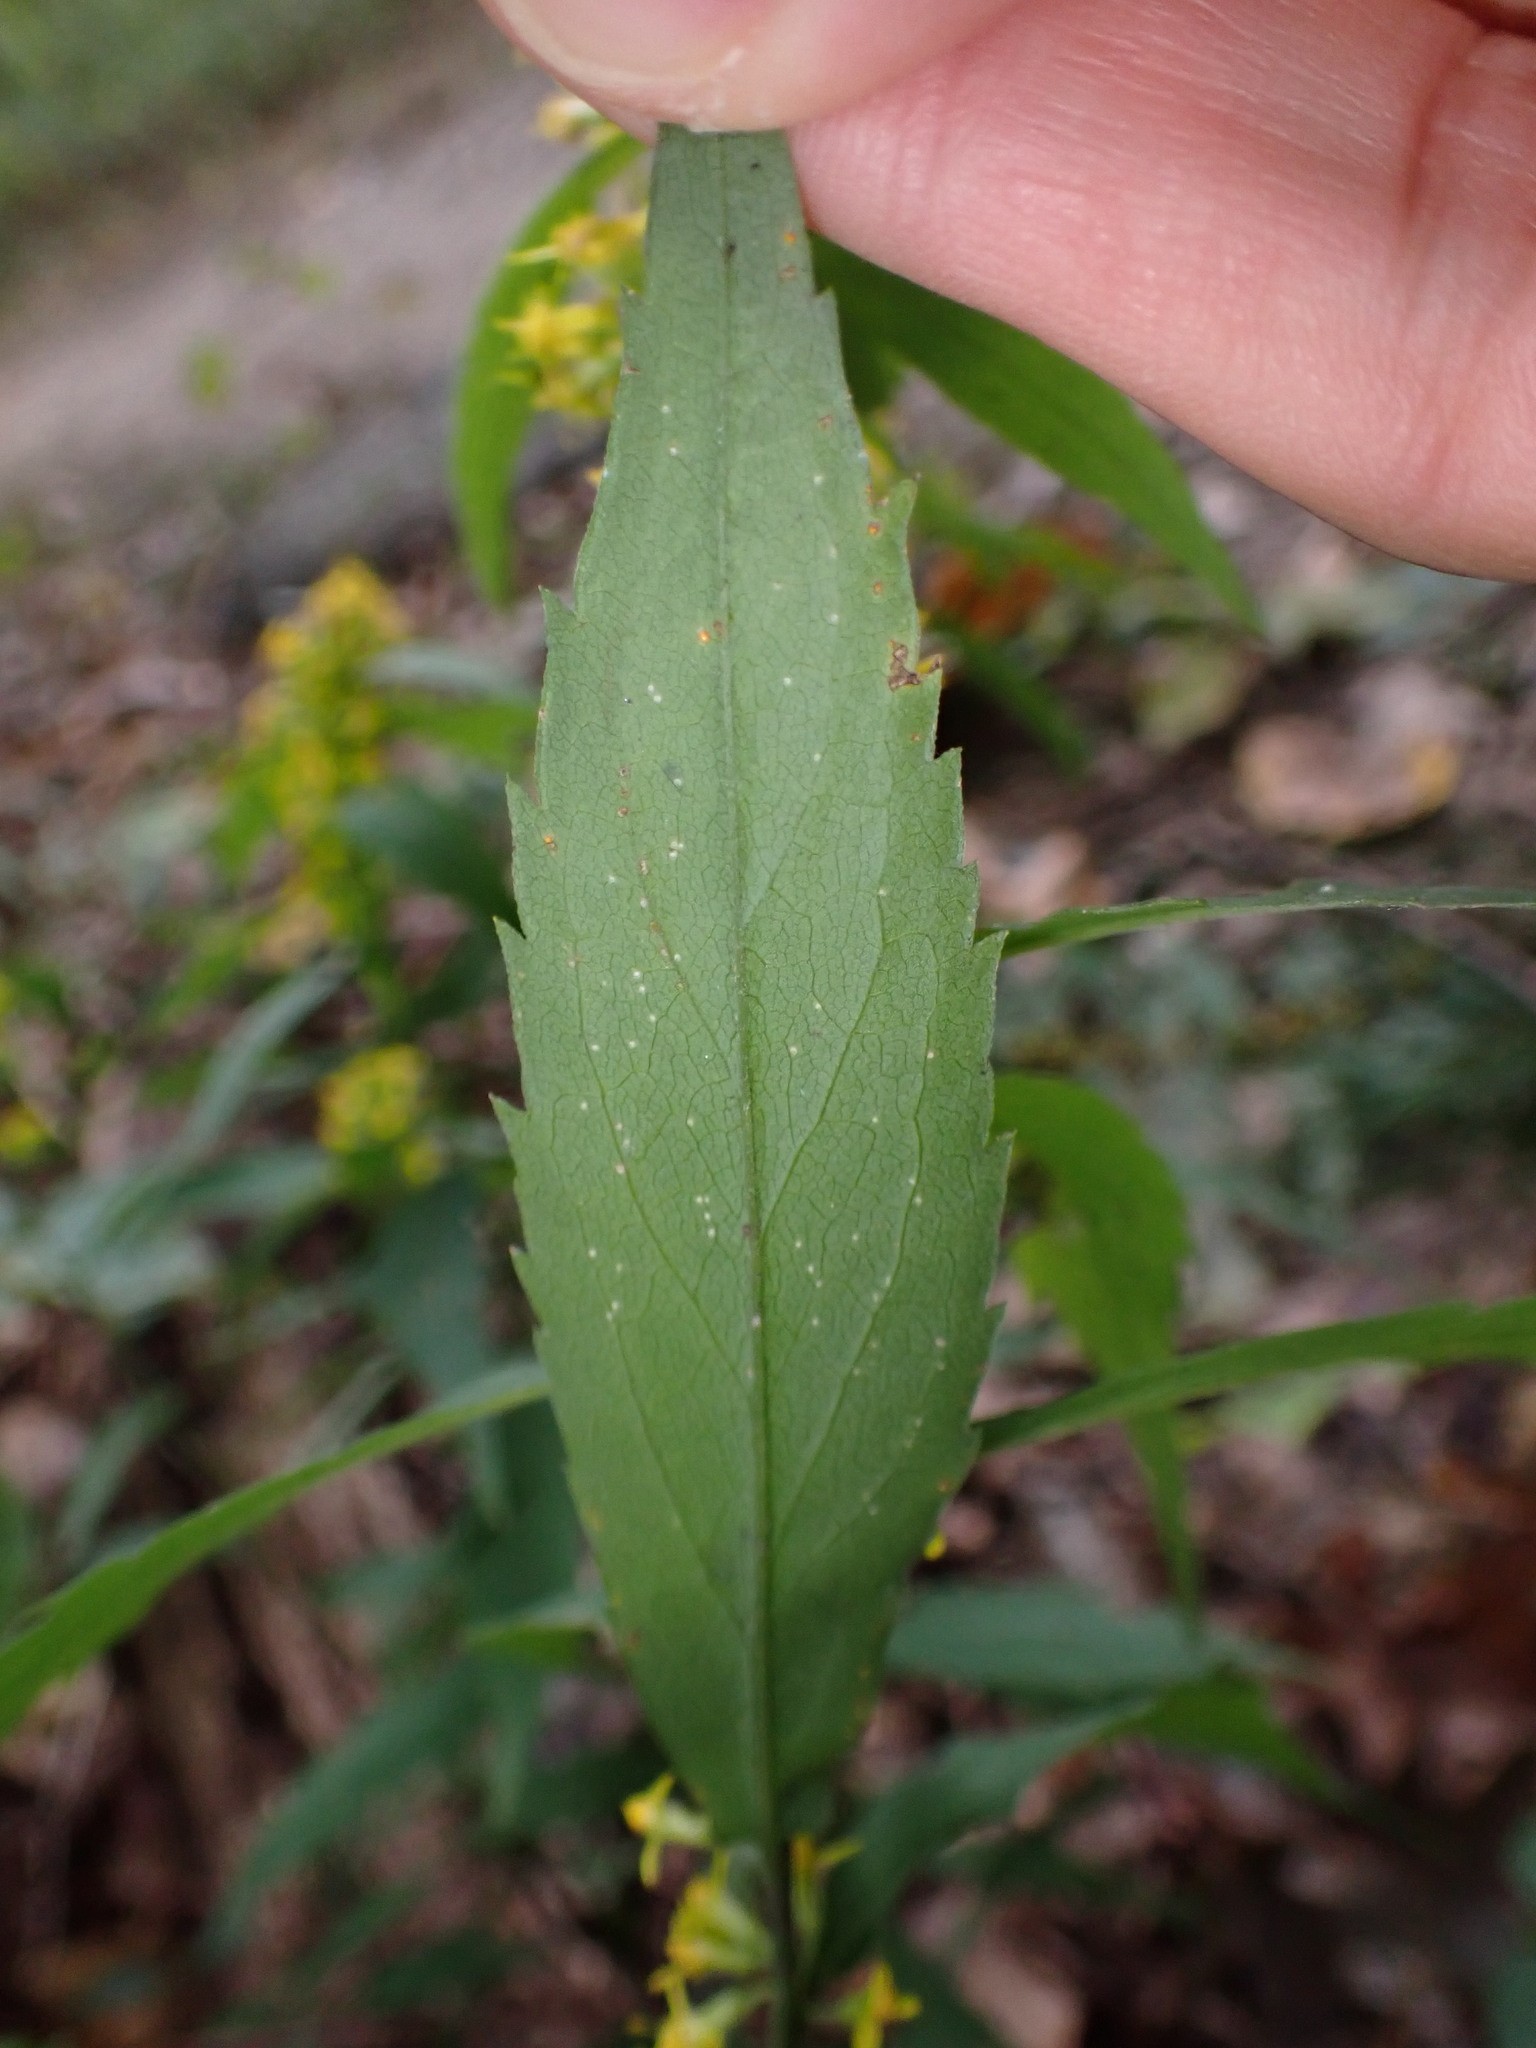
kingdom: Plantae
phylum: Tracheophyta
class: Magnoliopsida
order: Asterales
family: Asteraceae
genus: Solidago
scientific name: Solidago caesia
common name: Woodland goldenrod
